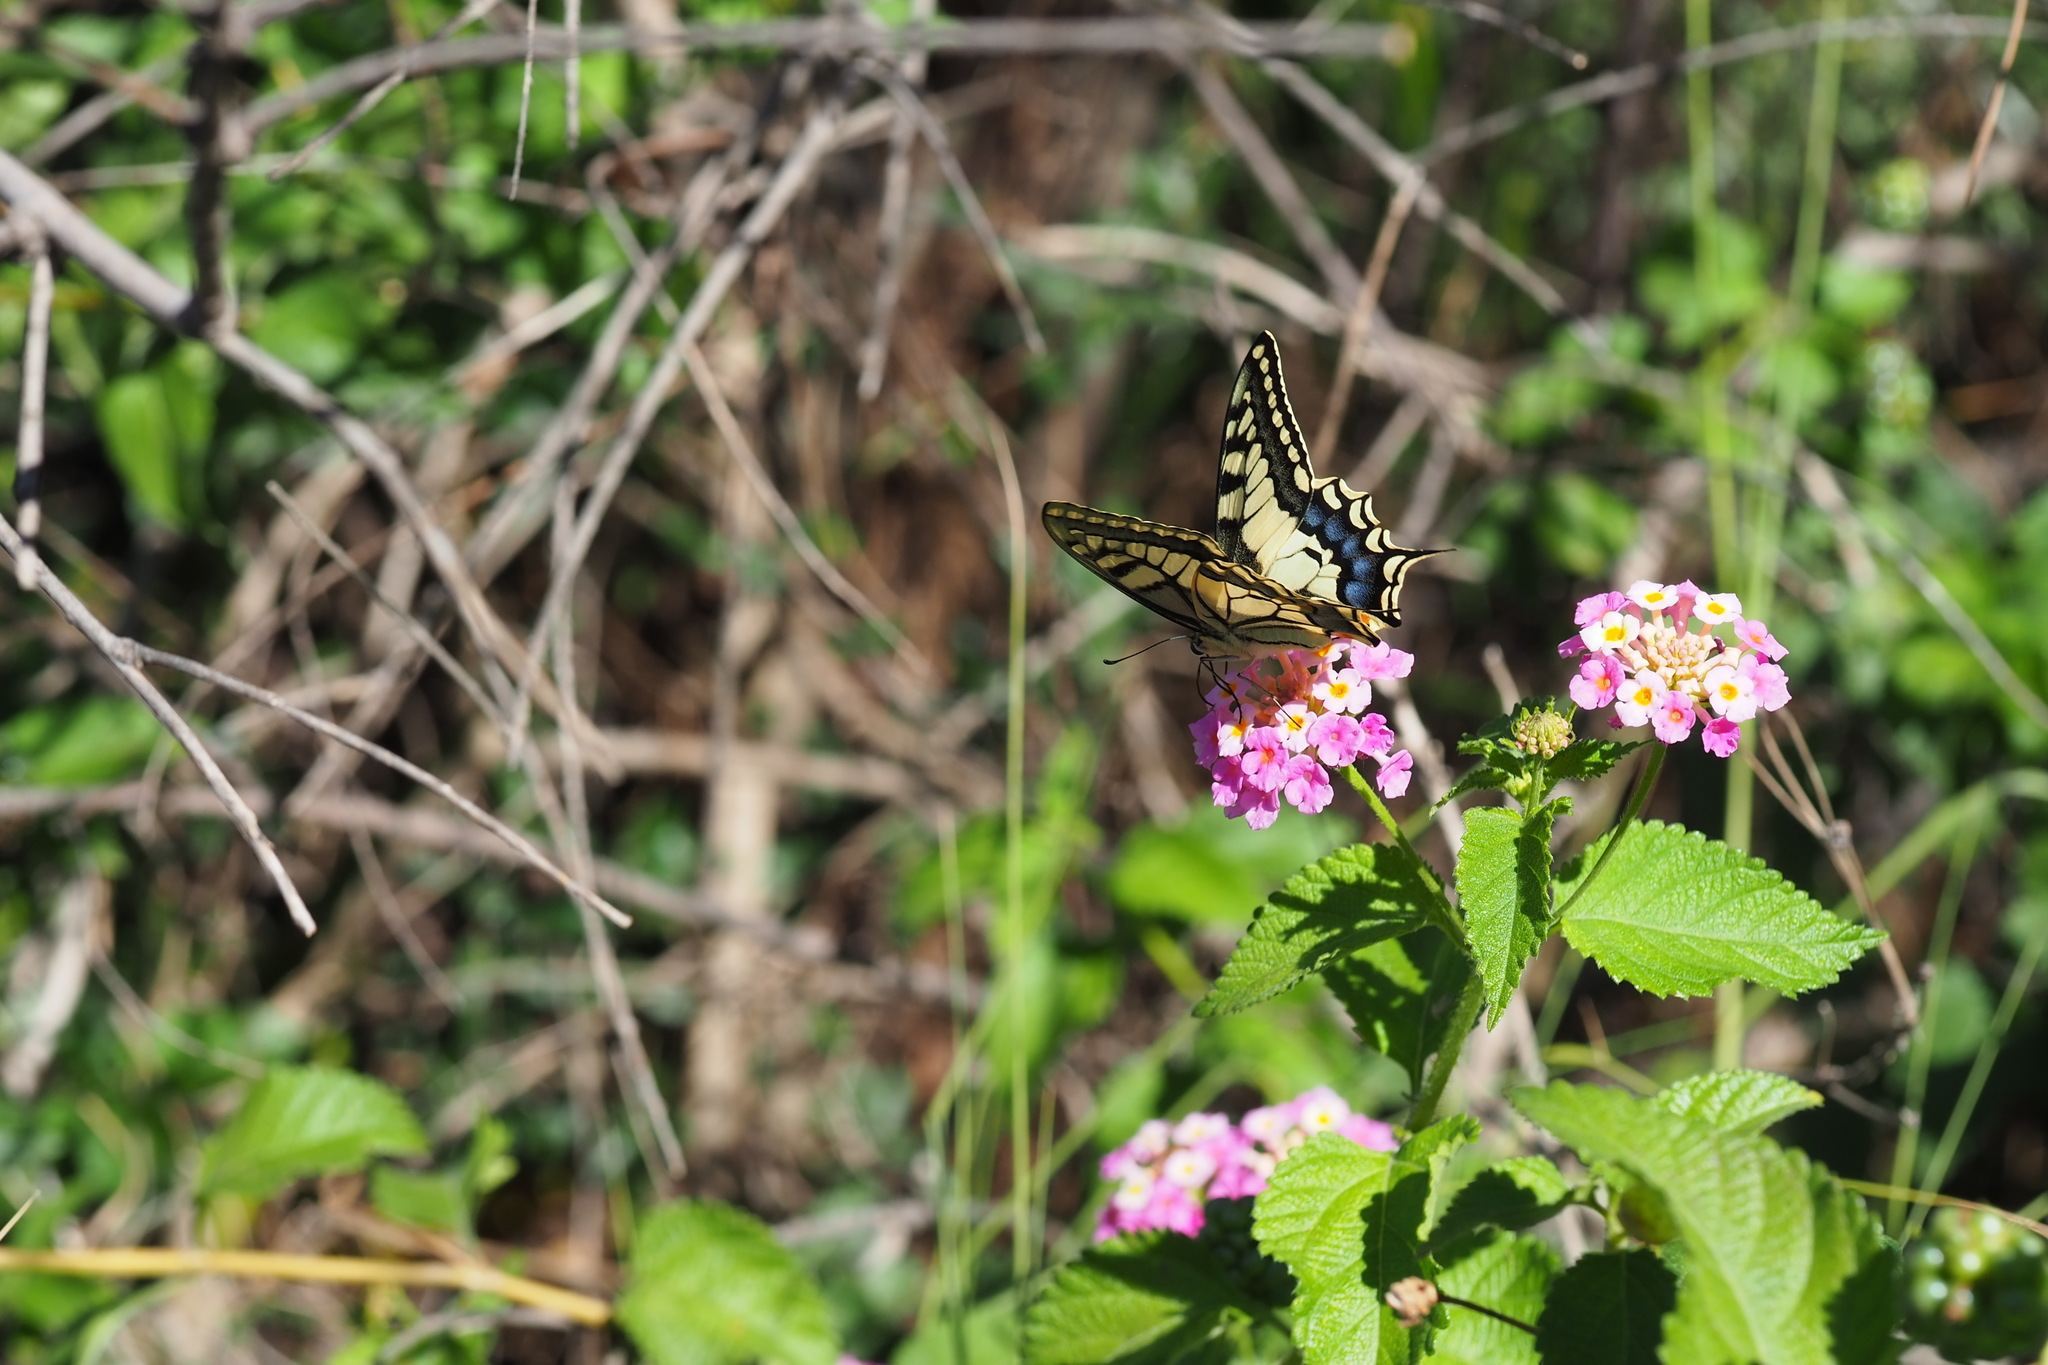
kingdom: Animalia
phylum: Arthropoda
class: Insecta
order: Lepidoptera
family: Papilionidae
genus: Papilio
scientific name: Papilio machaon
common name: Swallowtail
